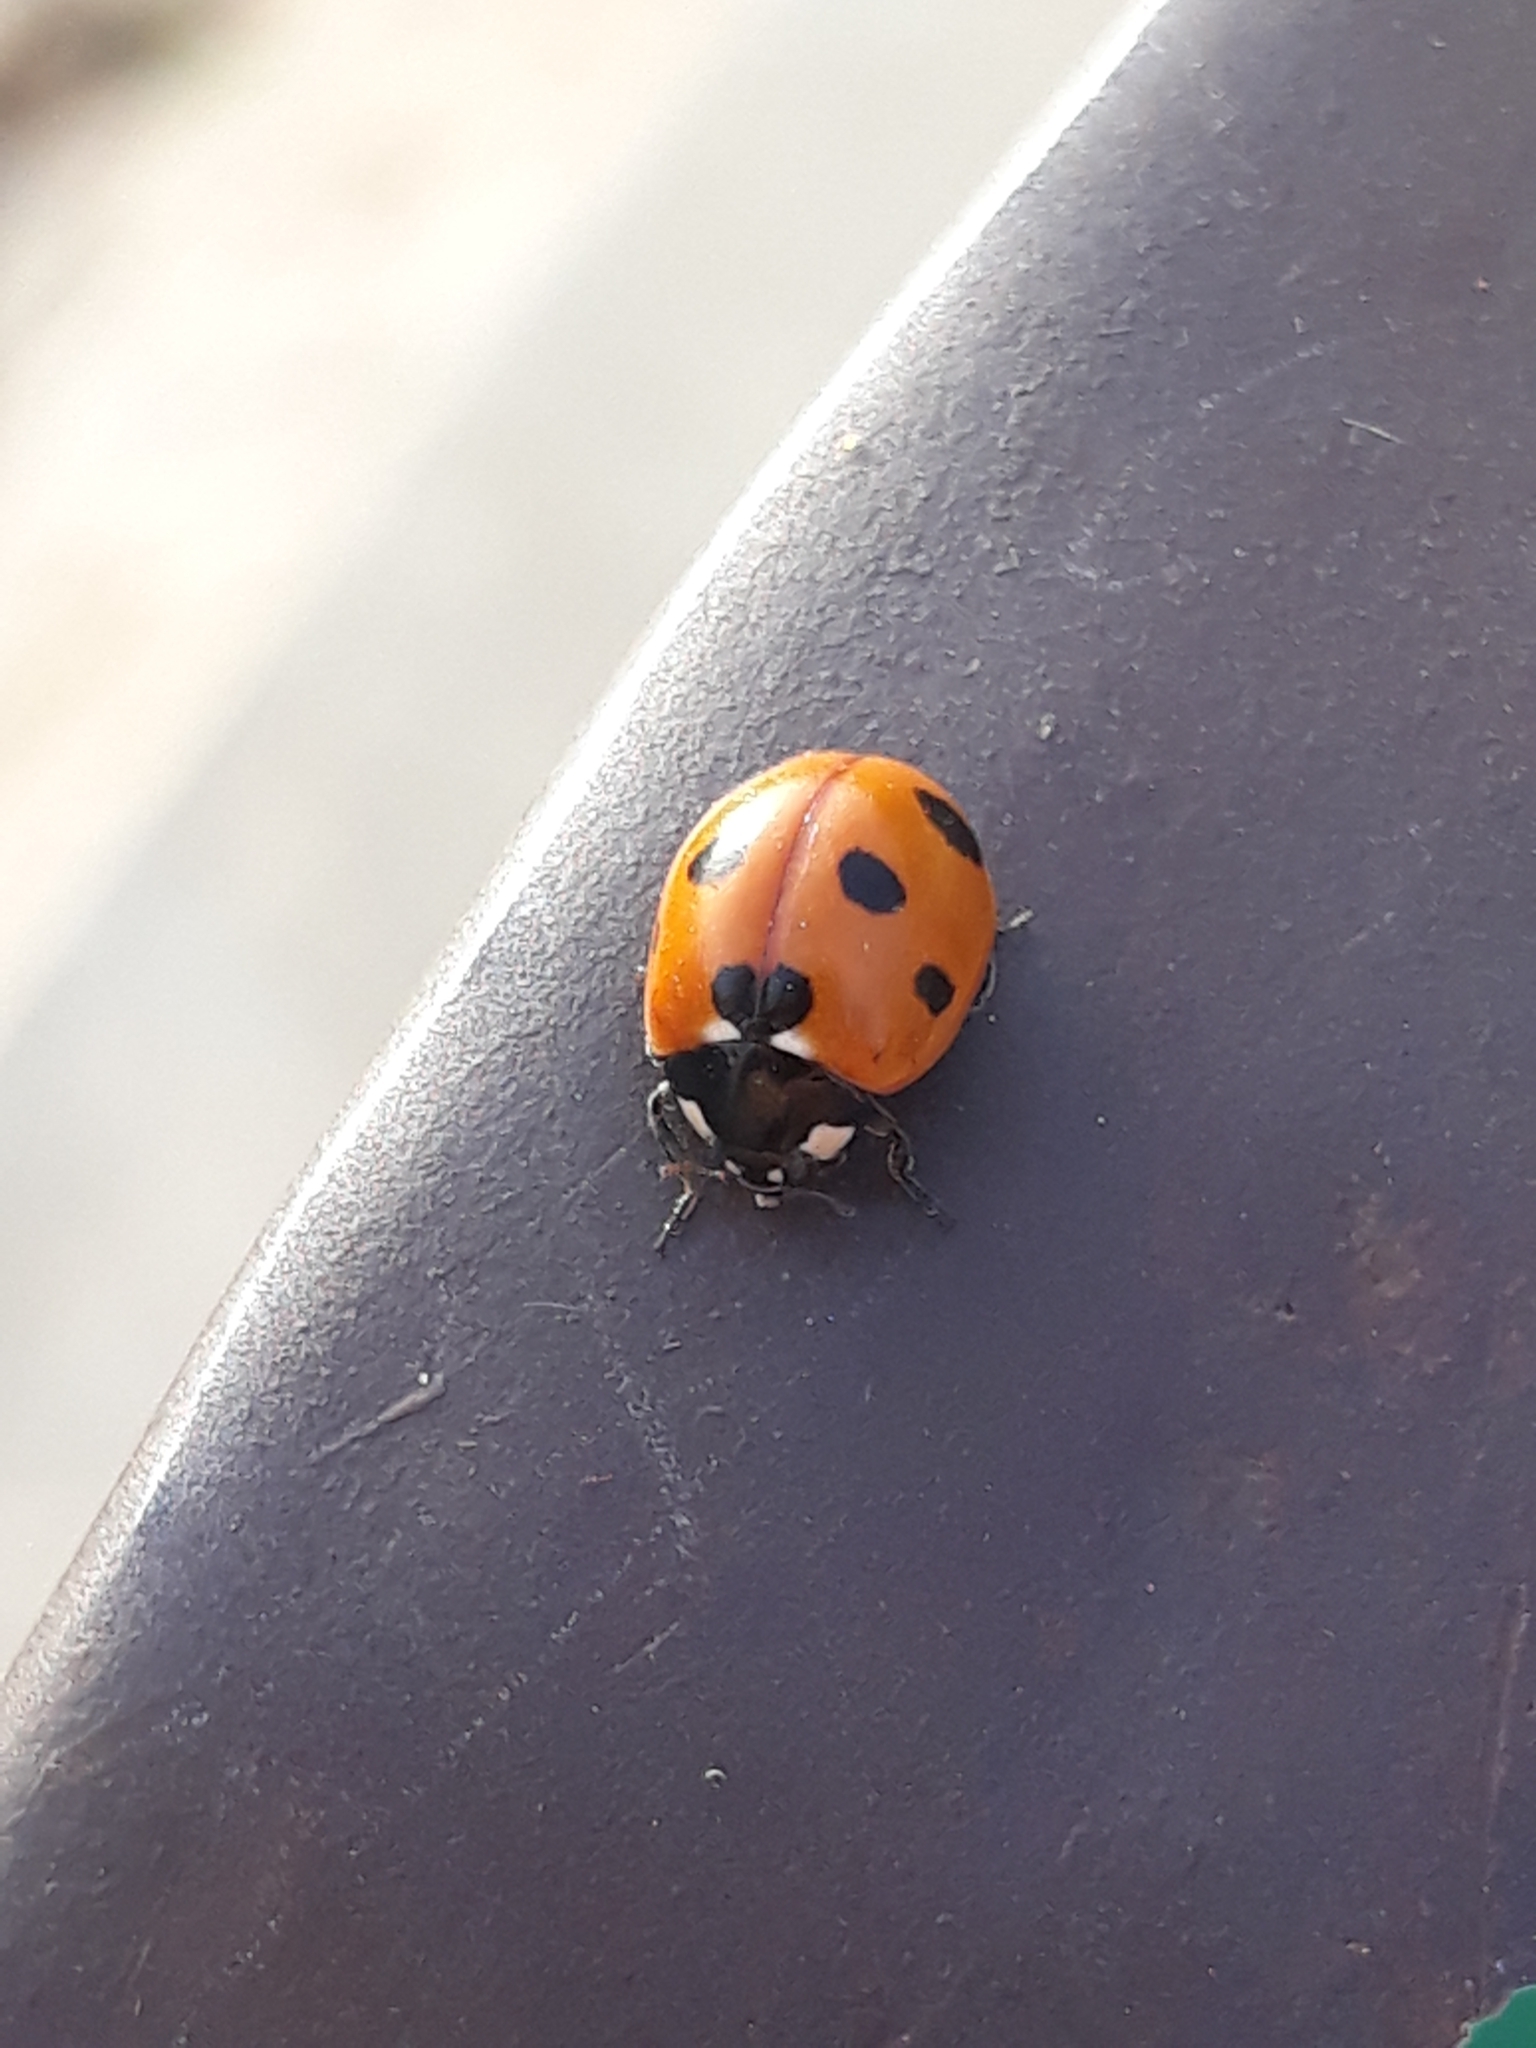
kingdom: Animalia
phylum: Arthropoda
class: Insecta
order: Coleoptera
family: Coccinellidae
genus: Coccinella
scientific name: Coccinella algerica
